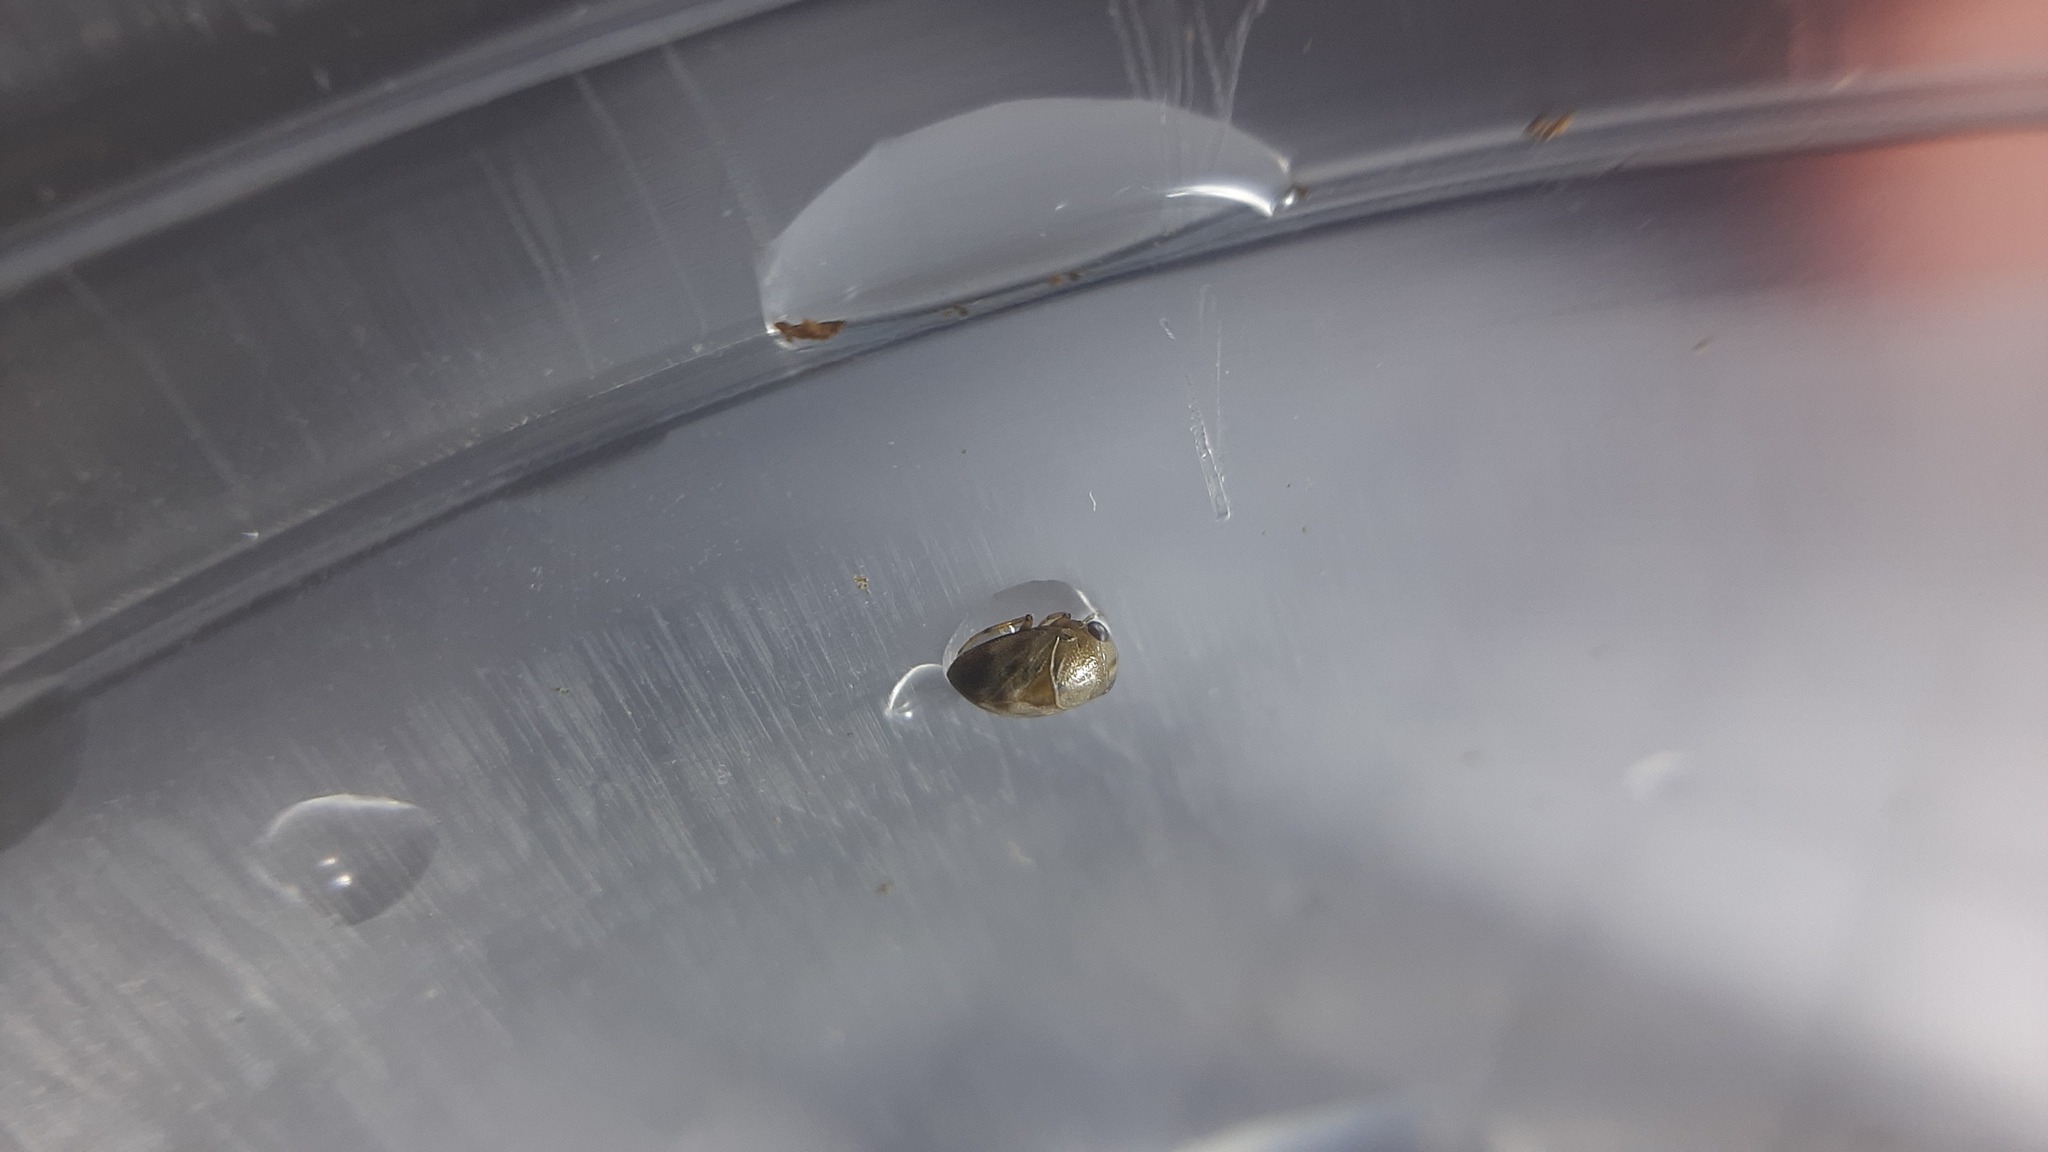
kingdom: Animalia
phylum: Arthropoda
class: Insecta
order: Hemiptera
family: Pleidae
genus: Plea
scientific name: Plea minutissima
